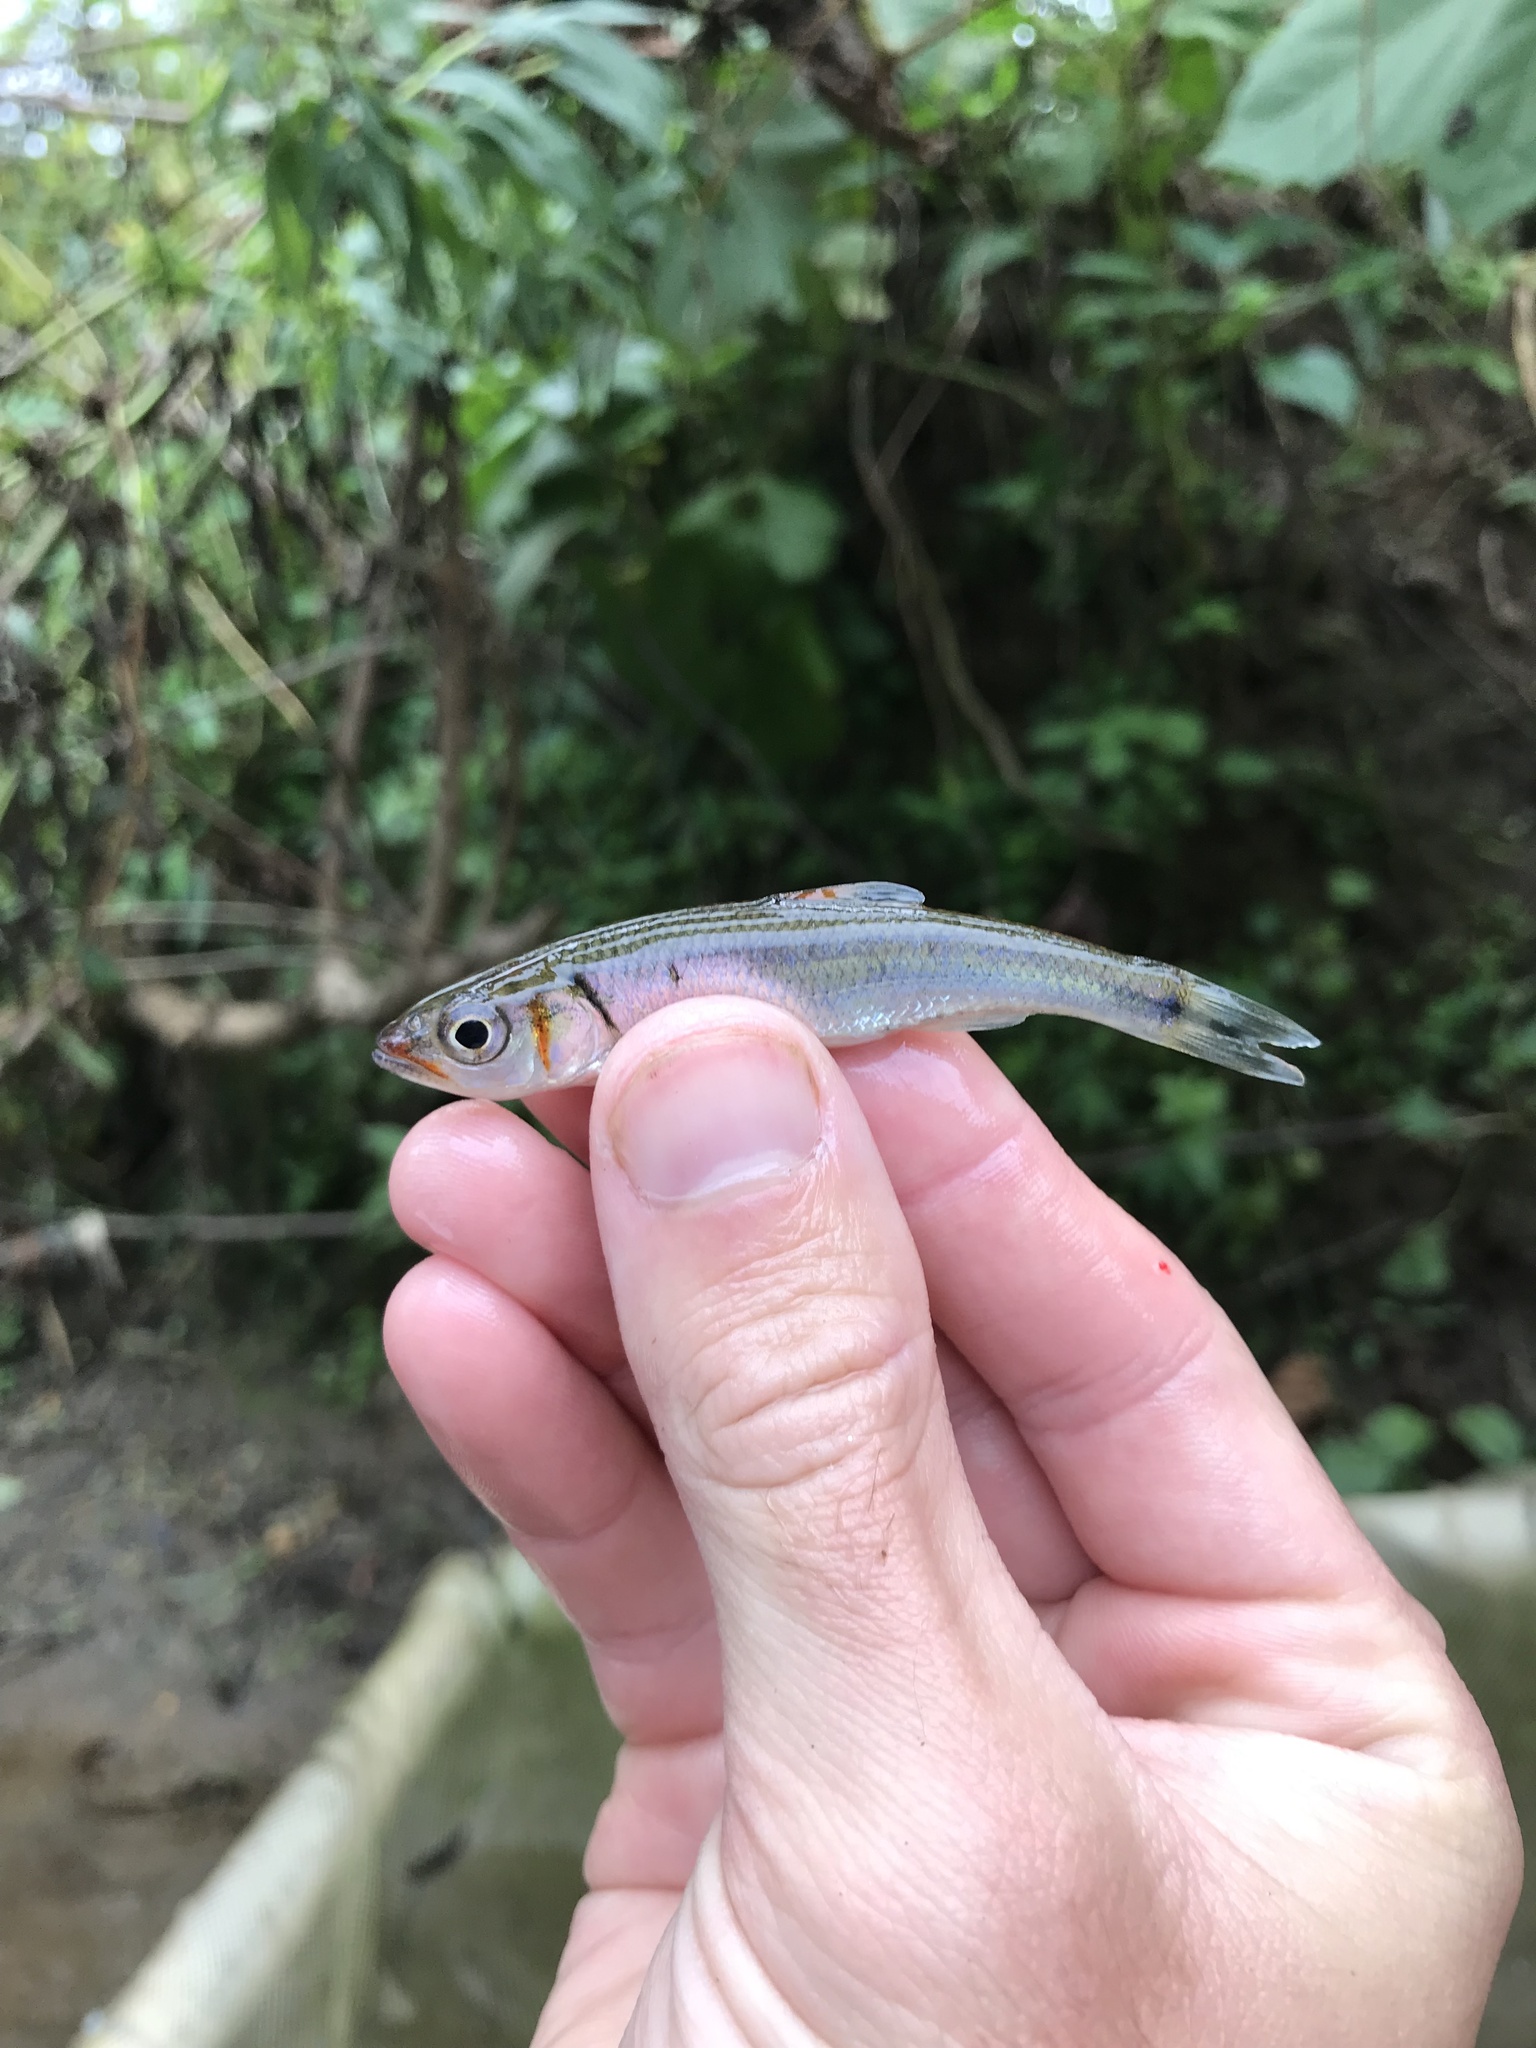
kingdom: Animalia
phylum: Chordata
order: Cypriniformes
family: Cyprinidae
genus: Luxilus
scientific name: Luxilus
